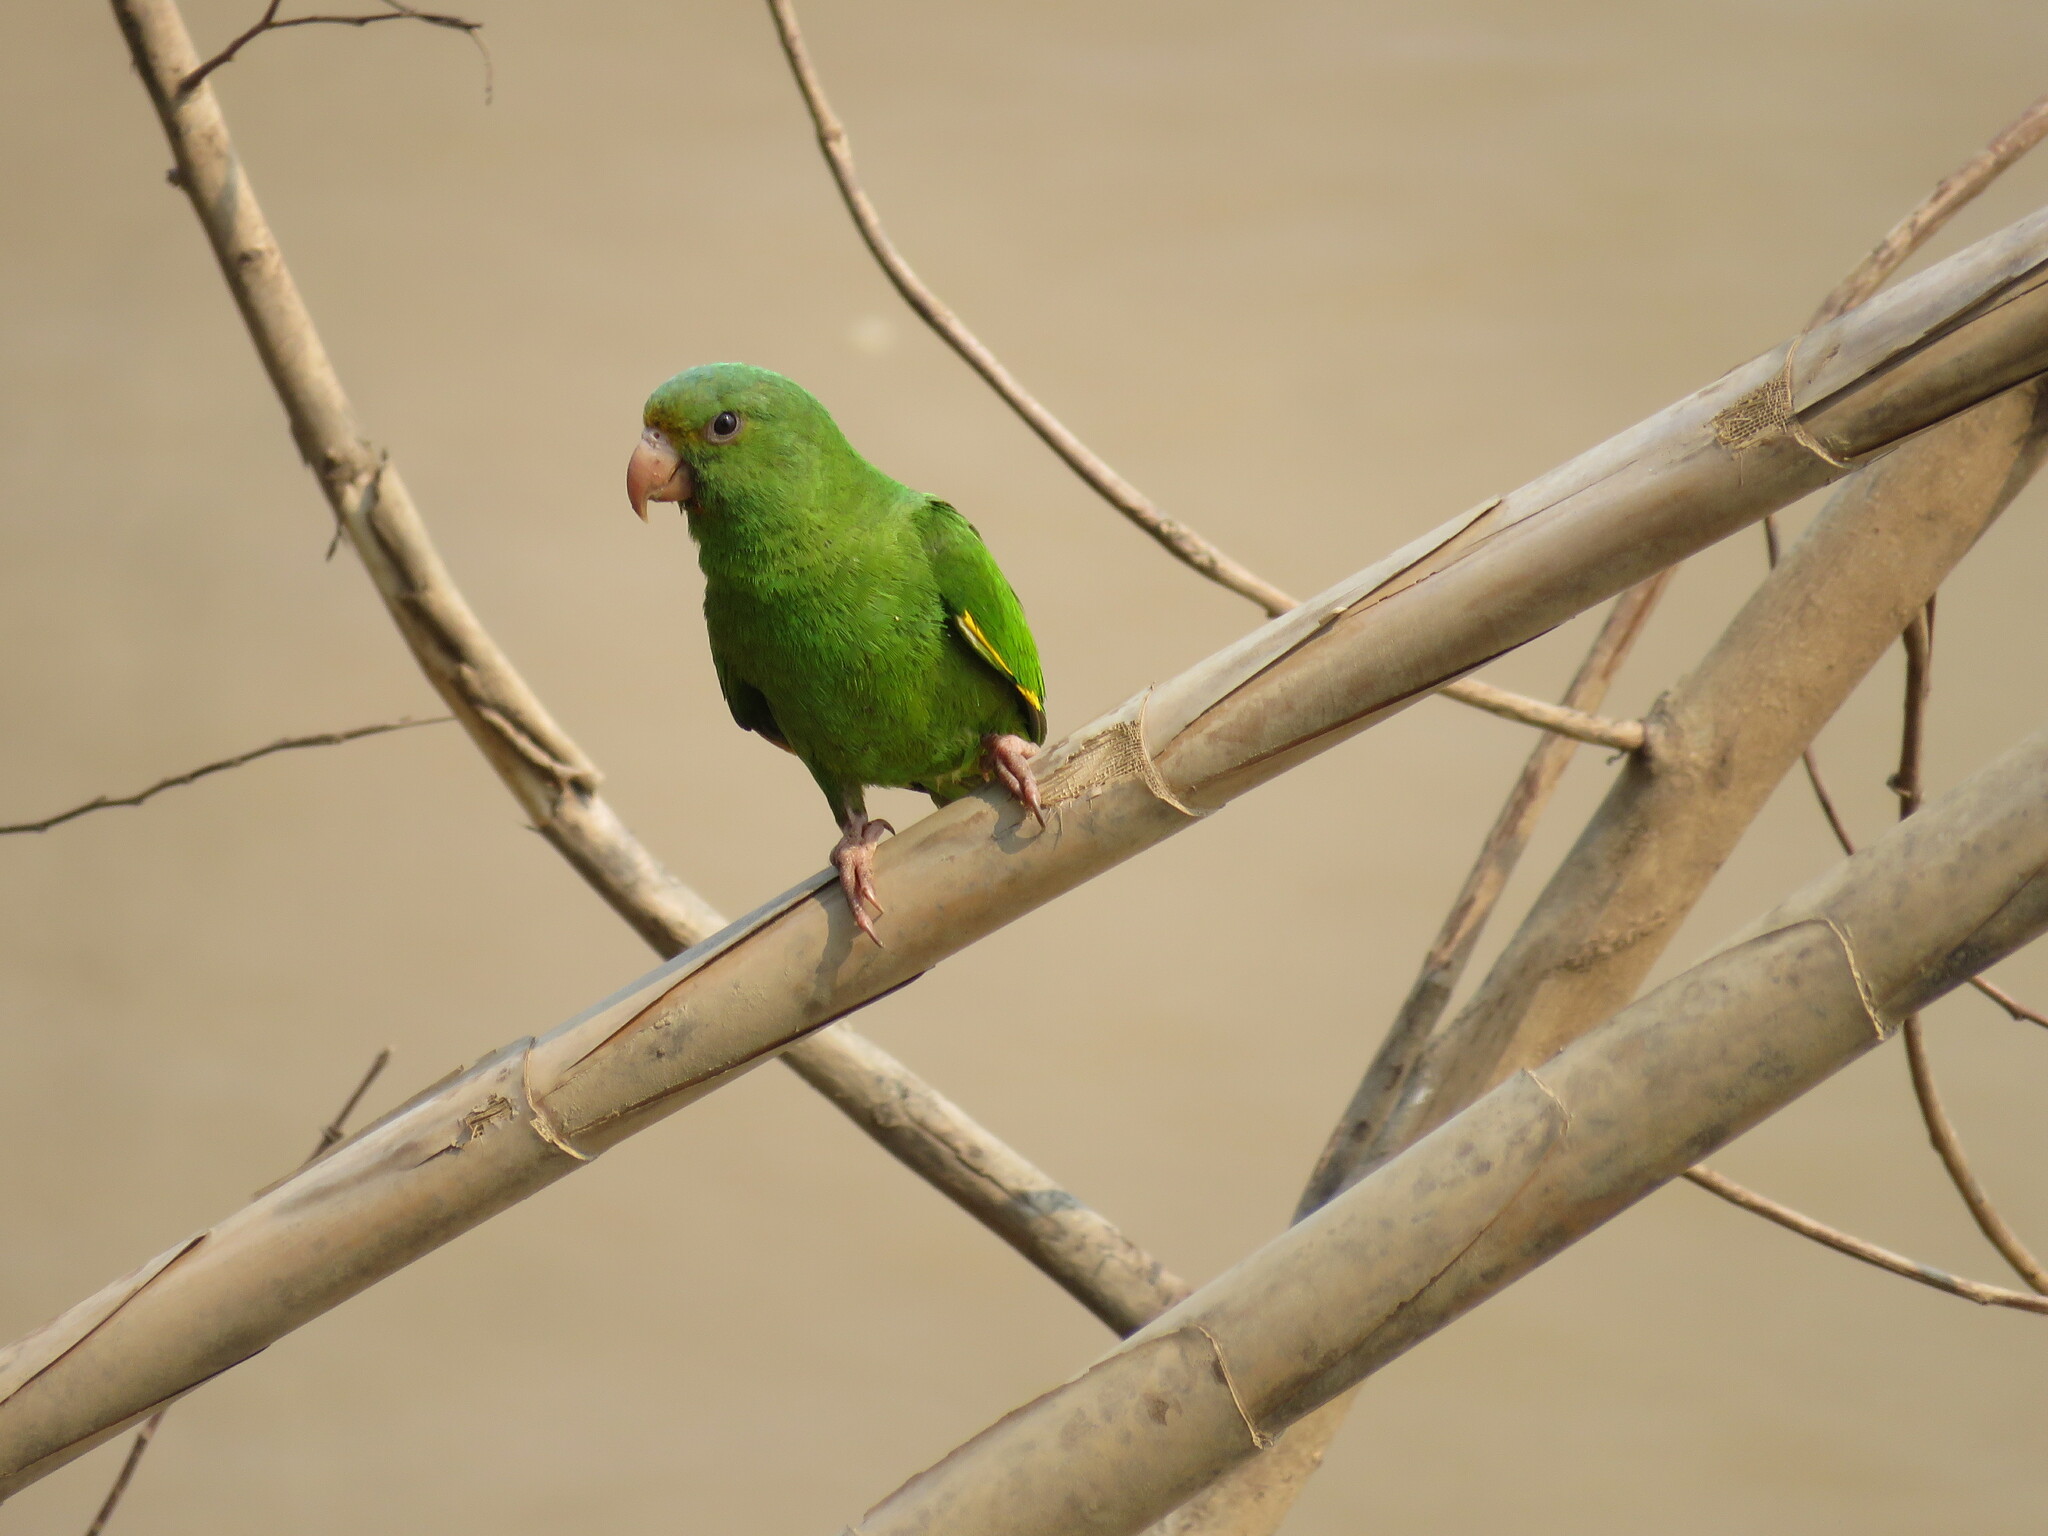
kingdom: Animalia
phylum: Chordata
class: Aves
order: Psittaciformes
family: Psittacidae
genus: Brotogeris
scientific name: Brotogeris cyanoptera
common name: Cobalt-winged parakeet
